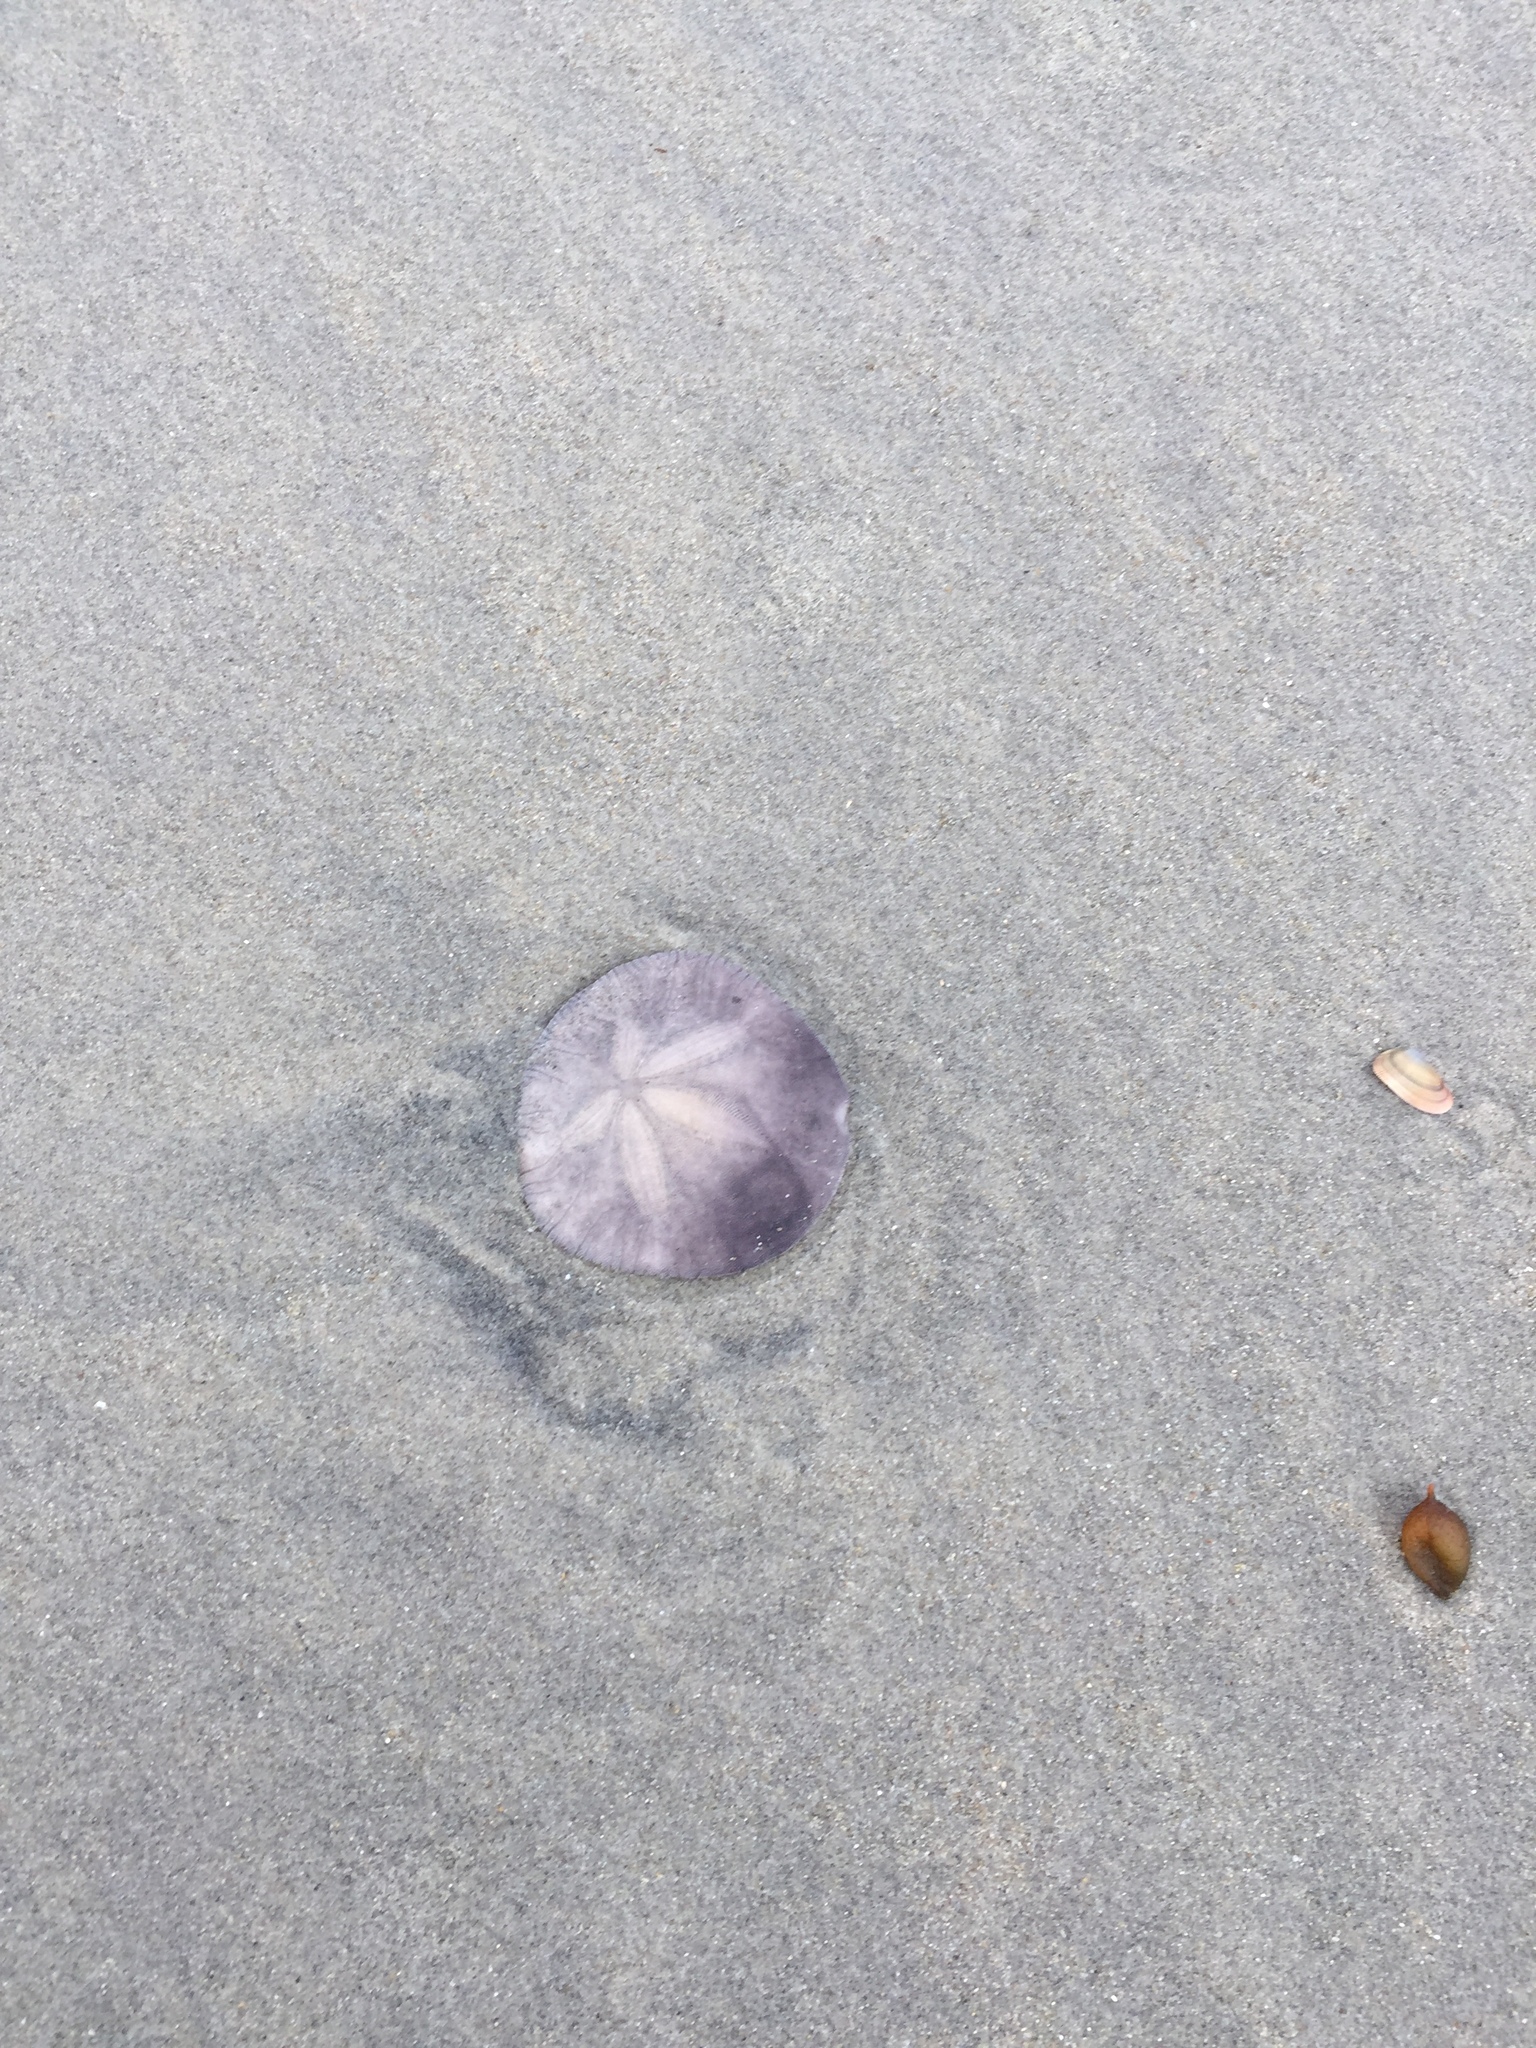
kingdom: Animalia
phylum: Echinodermata
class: Echinoidea
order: Echinolampadacea
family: Dendrasteridae
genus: Dendraster
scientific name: Dendraster excentricus
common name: Eccentric sand dollar sea urchin
